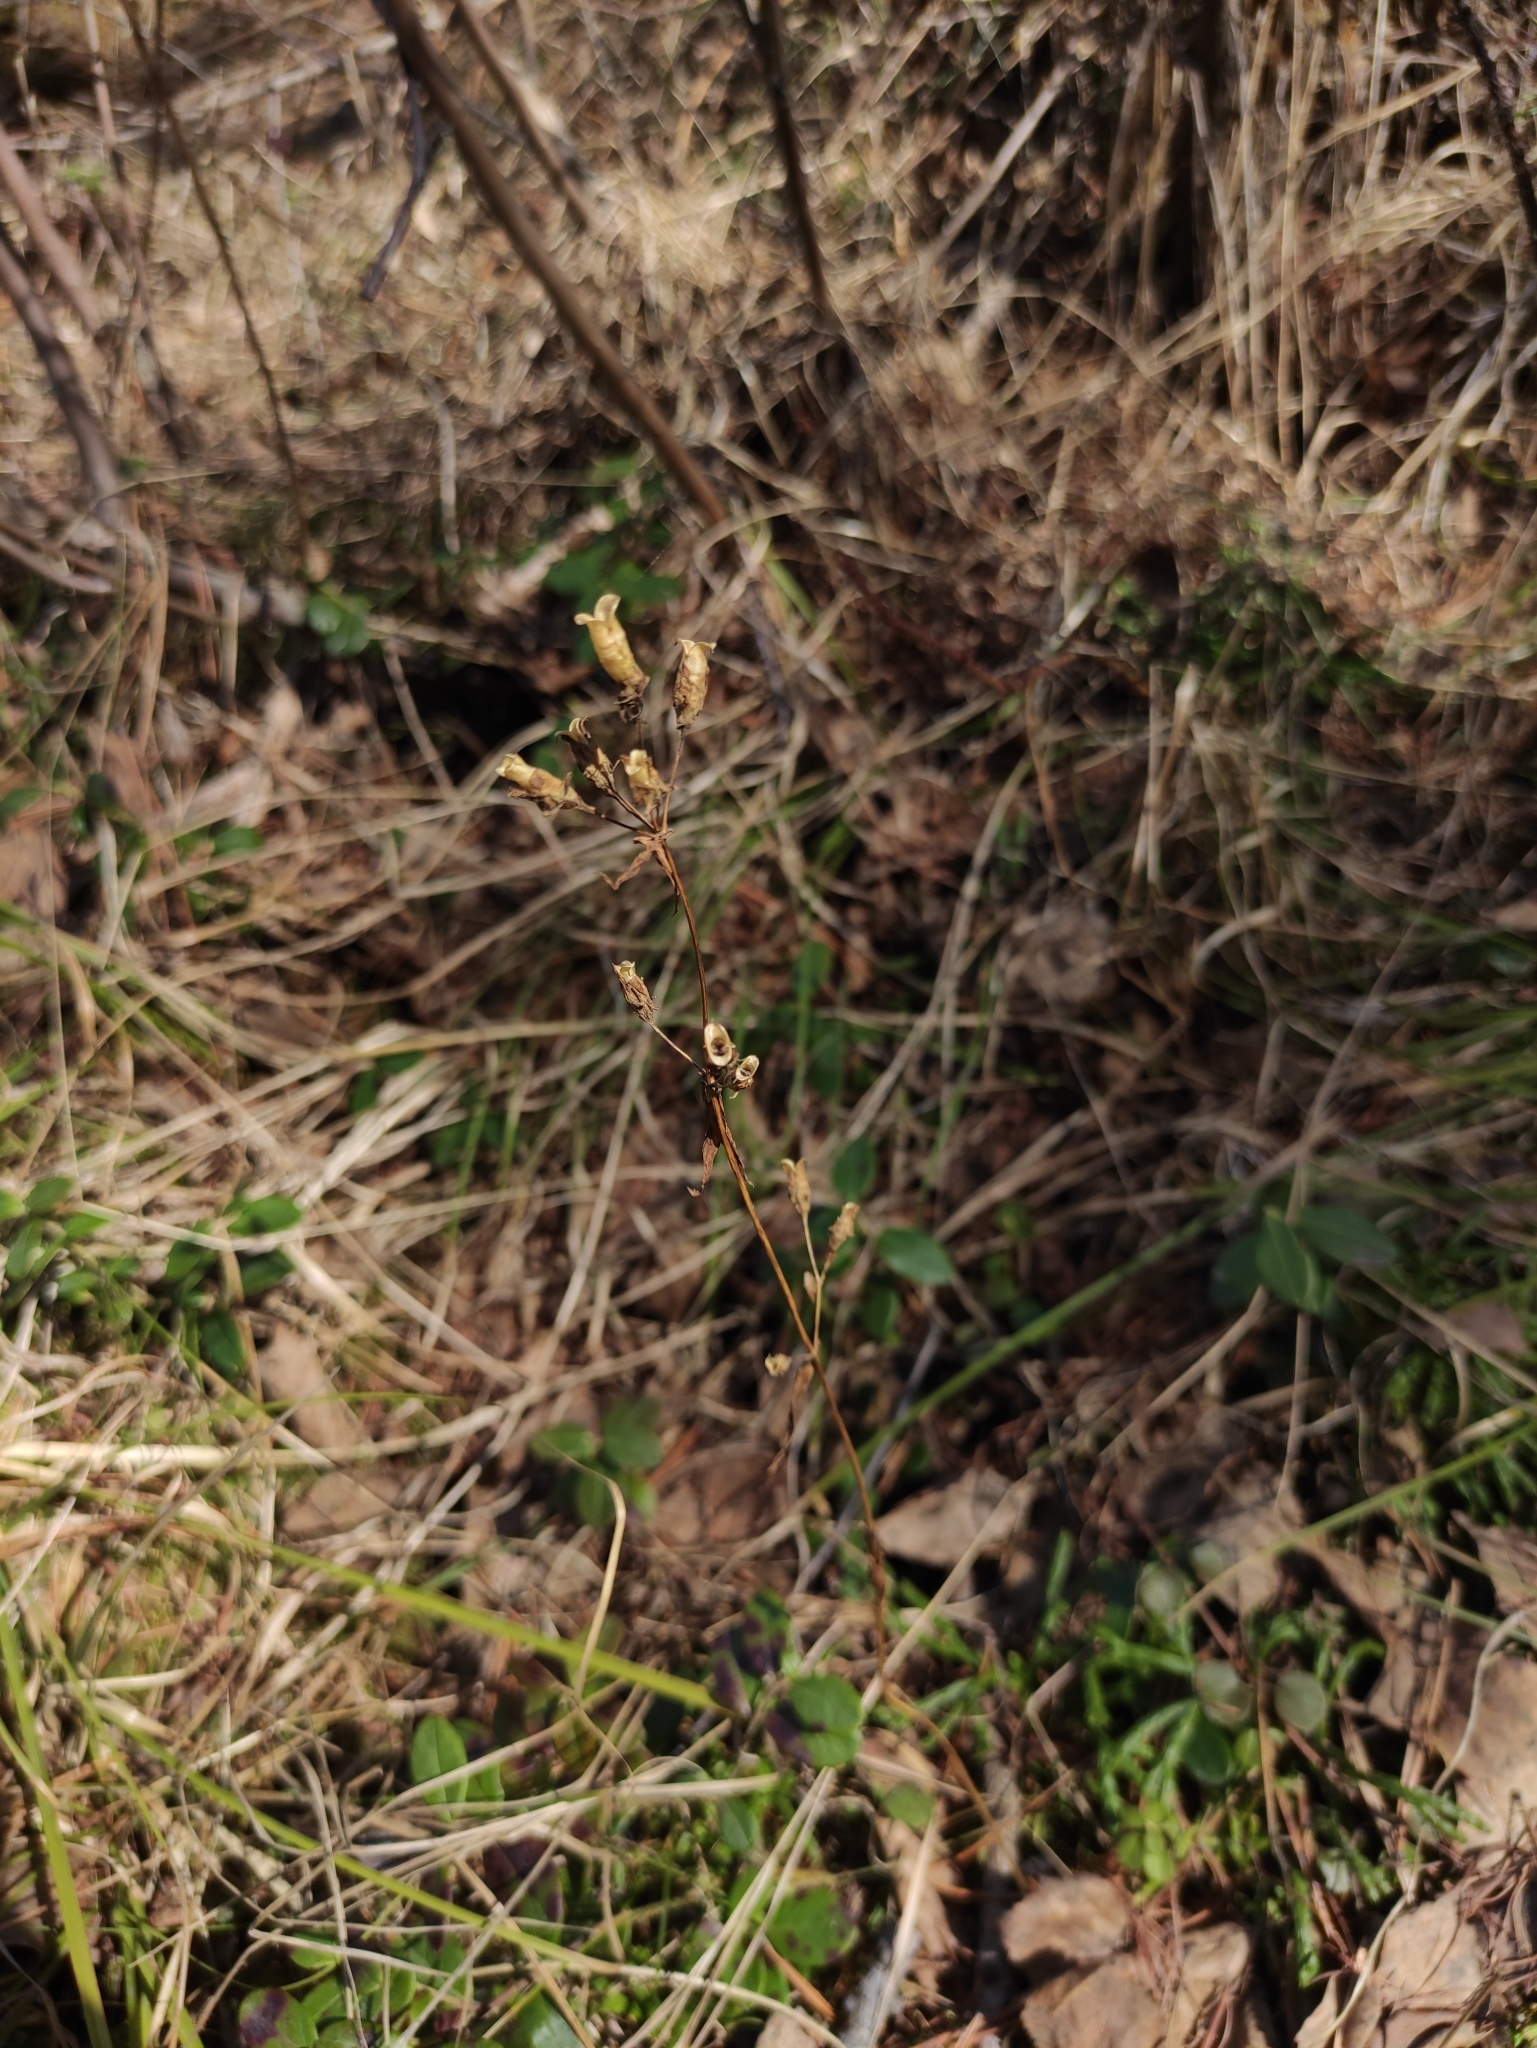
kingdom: Plantae
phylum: Tracheophyta
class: Magnoliopsida
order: Gentianales
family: Gentianaceae
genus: Halenia
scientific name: Halenia corniculata
